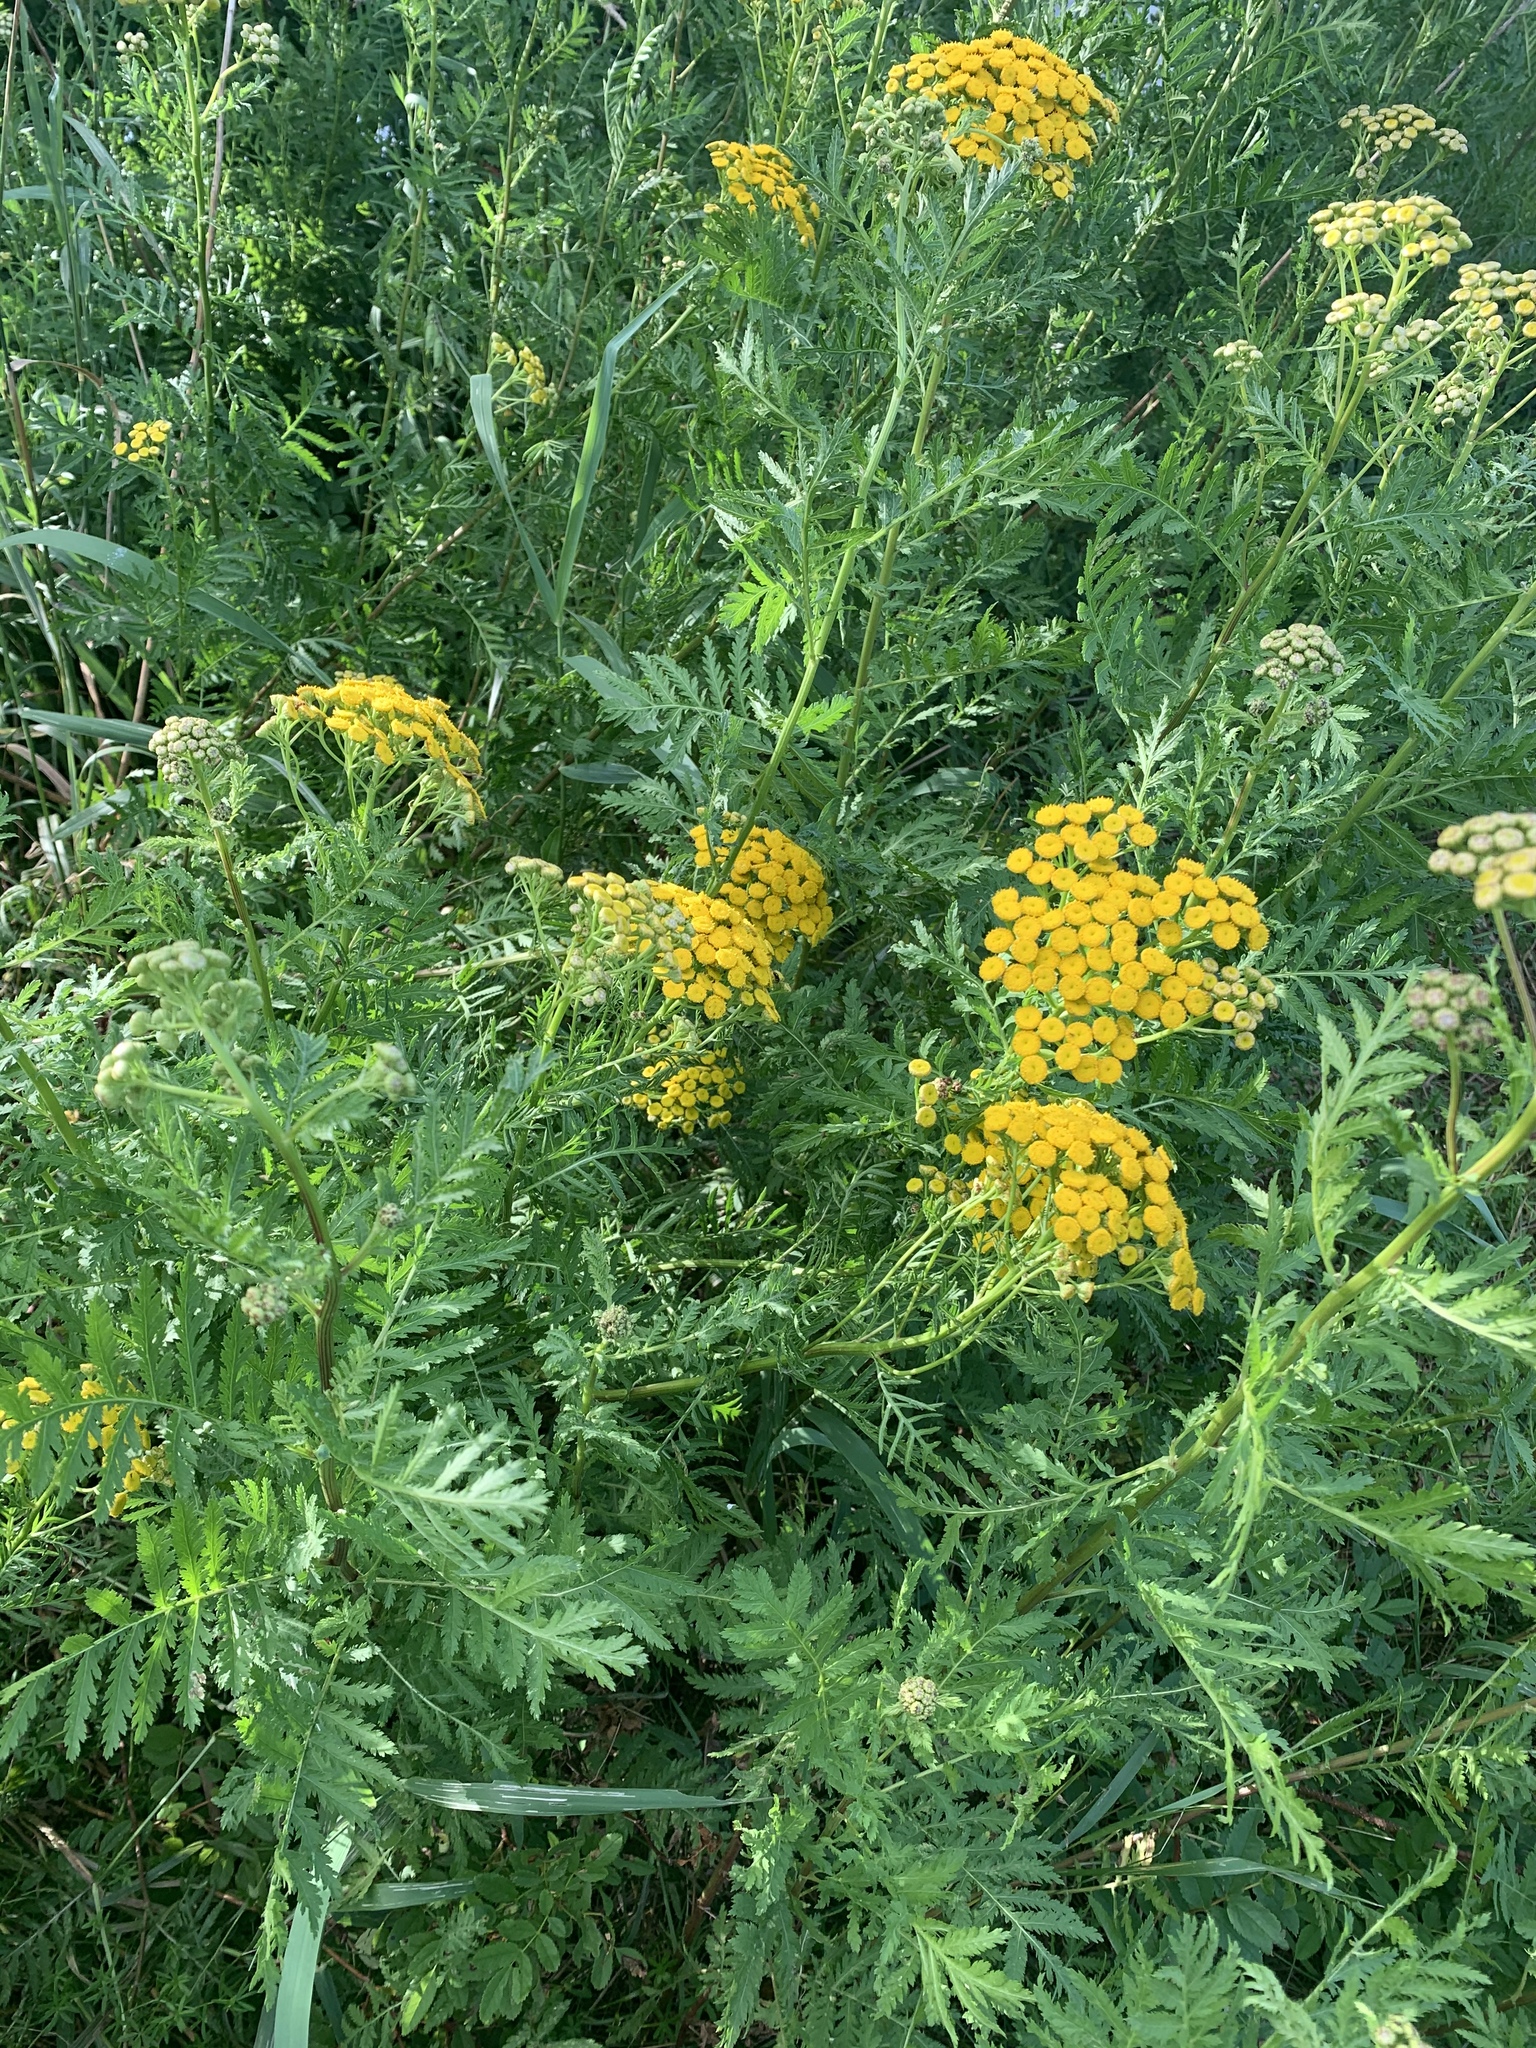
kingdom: Plantae
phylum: Tracheophyta
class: Magnoliopsida
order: Asterales
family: Asteraceae
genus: Tanacetum
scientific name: Tanacetum vulgare
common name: Common tansy
